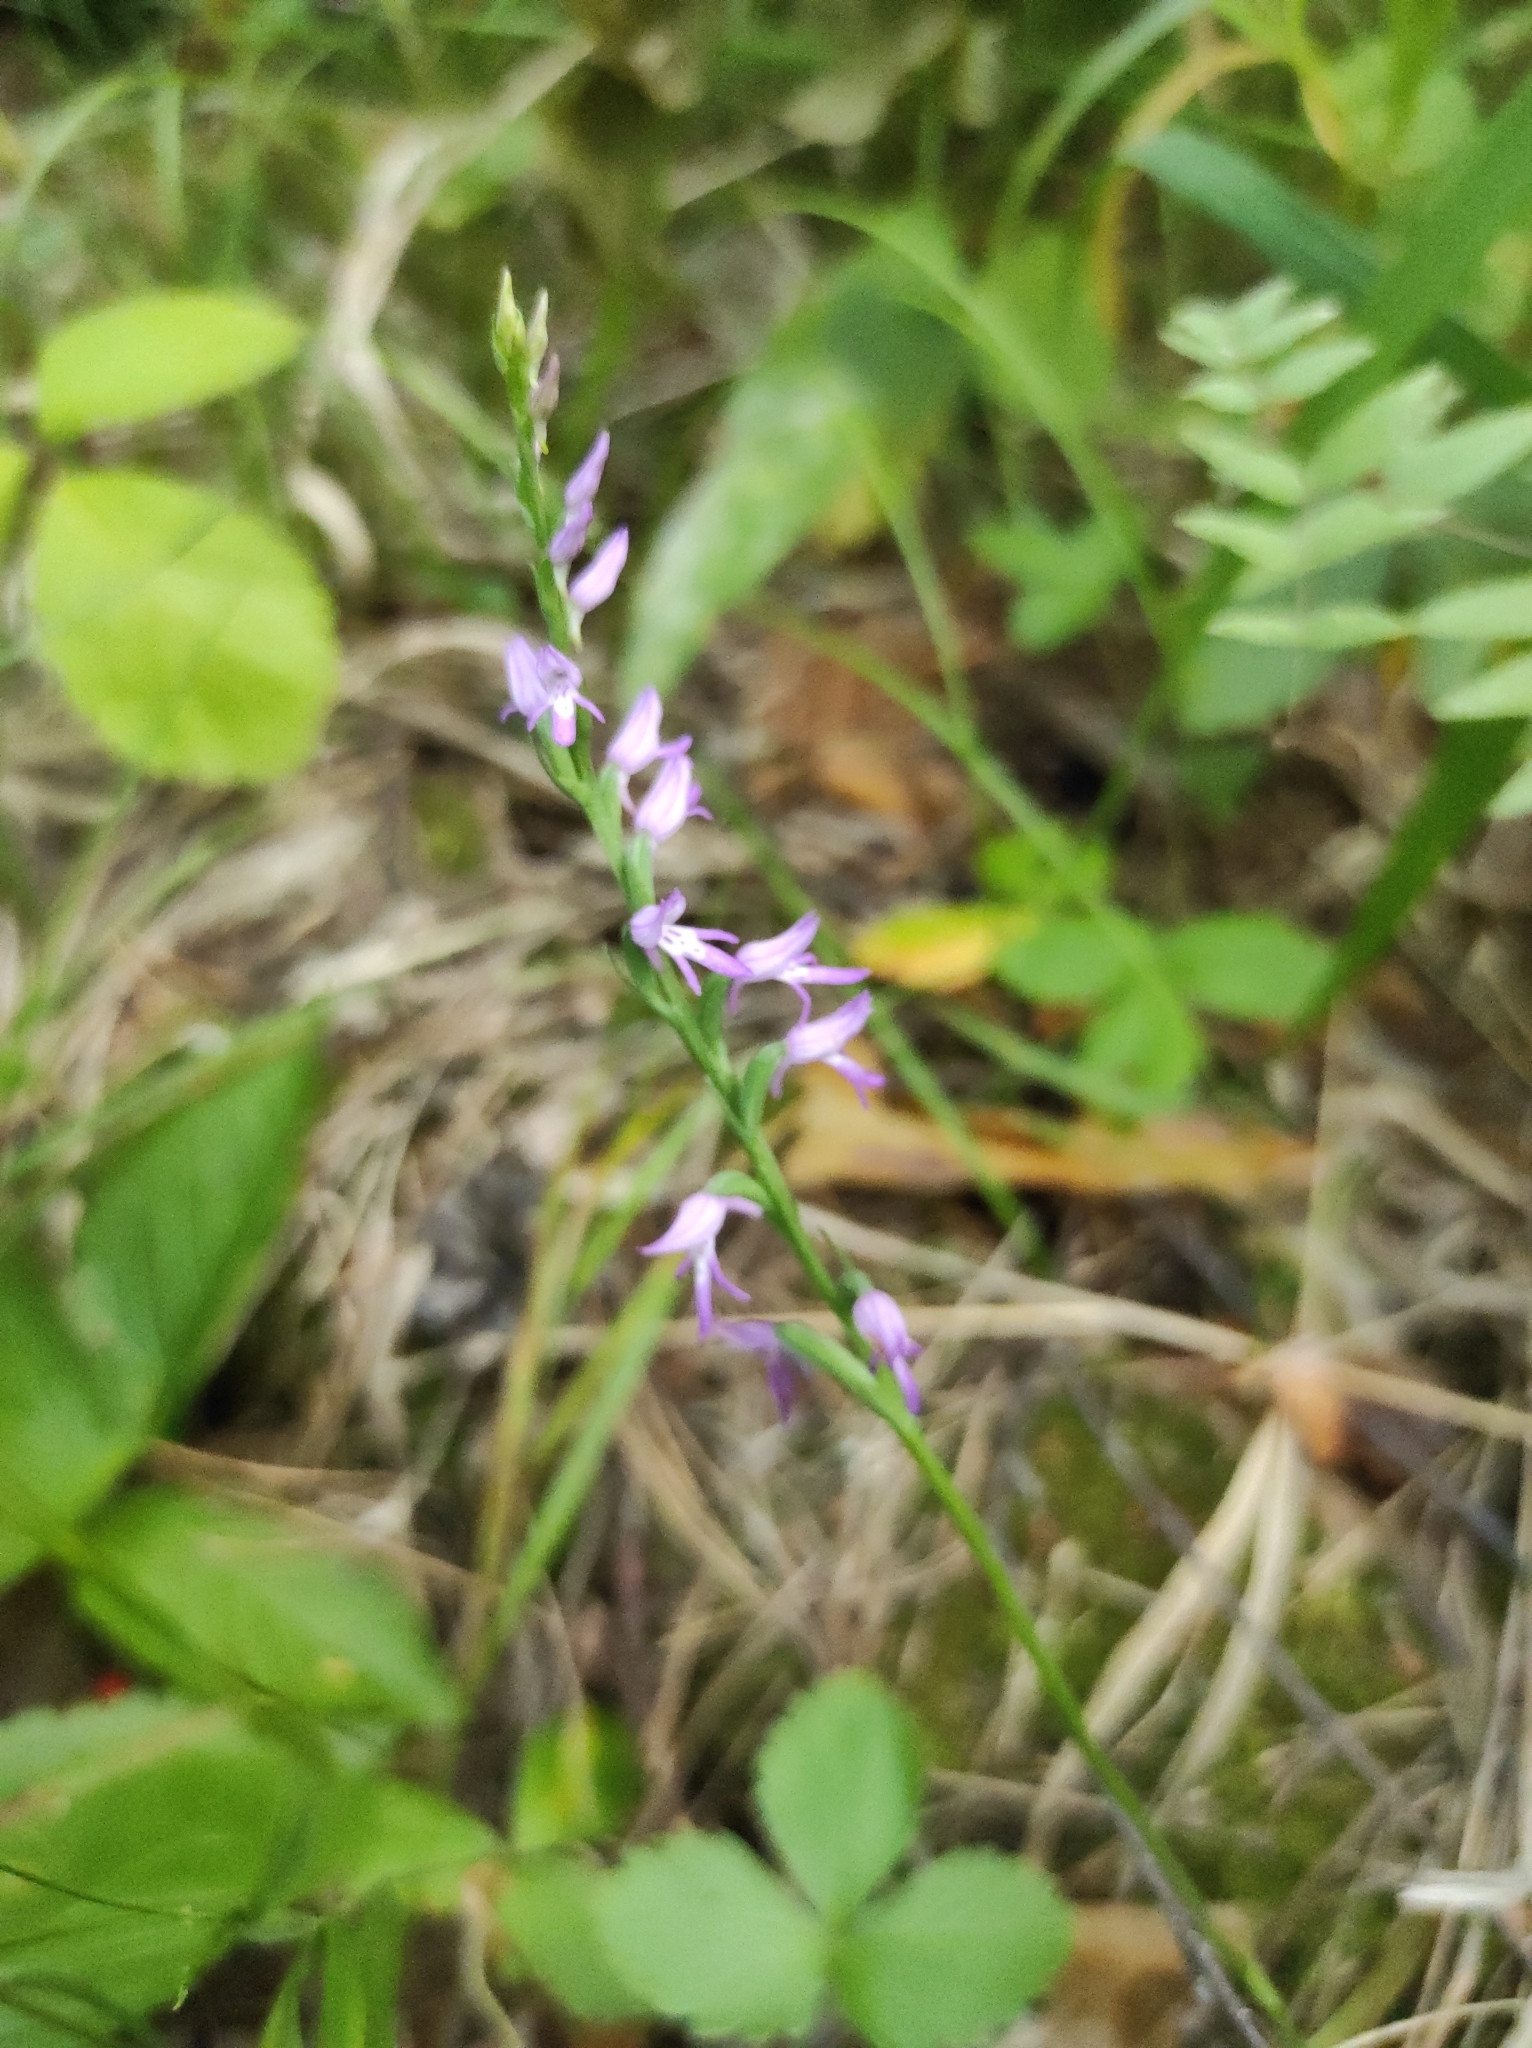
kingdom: Plantae
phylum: Tracheophyta
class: Liliopsida
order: Asparagales
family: Orchidaceae
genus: Hemipilia
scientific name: Hemipilia cucullata
